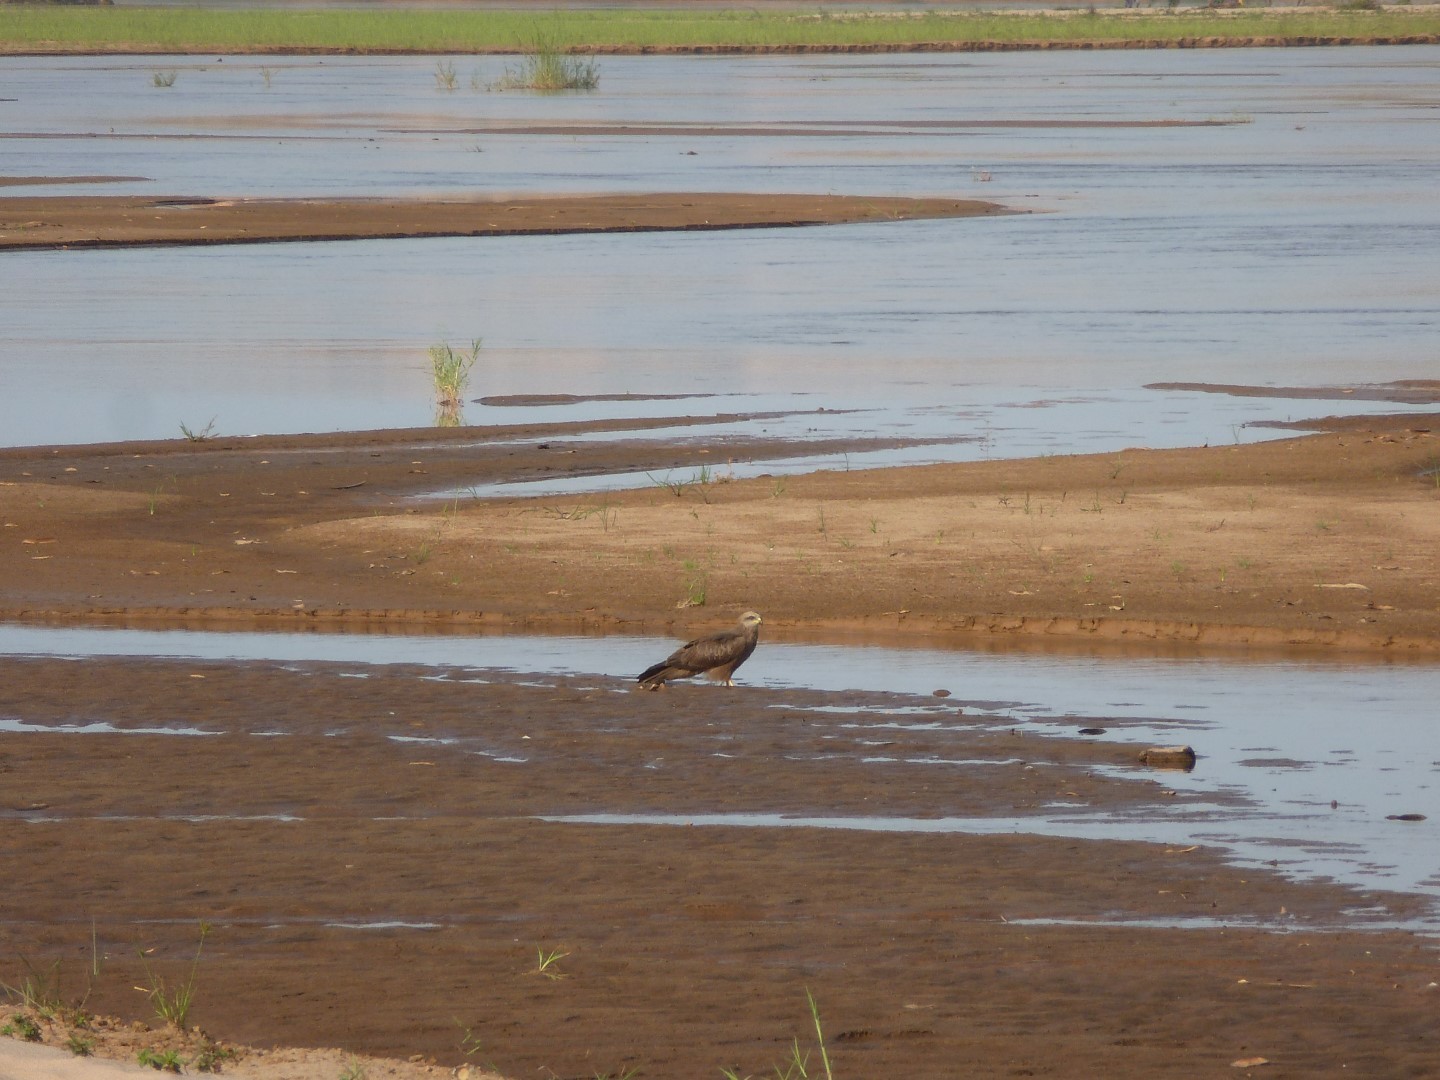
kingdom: Animalia
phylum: Chordata
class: Aves
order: Accipitriformes
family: Accipitridae
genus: Milvus
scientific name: Milvus migrans
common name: Black kite
